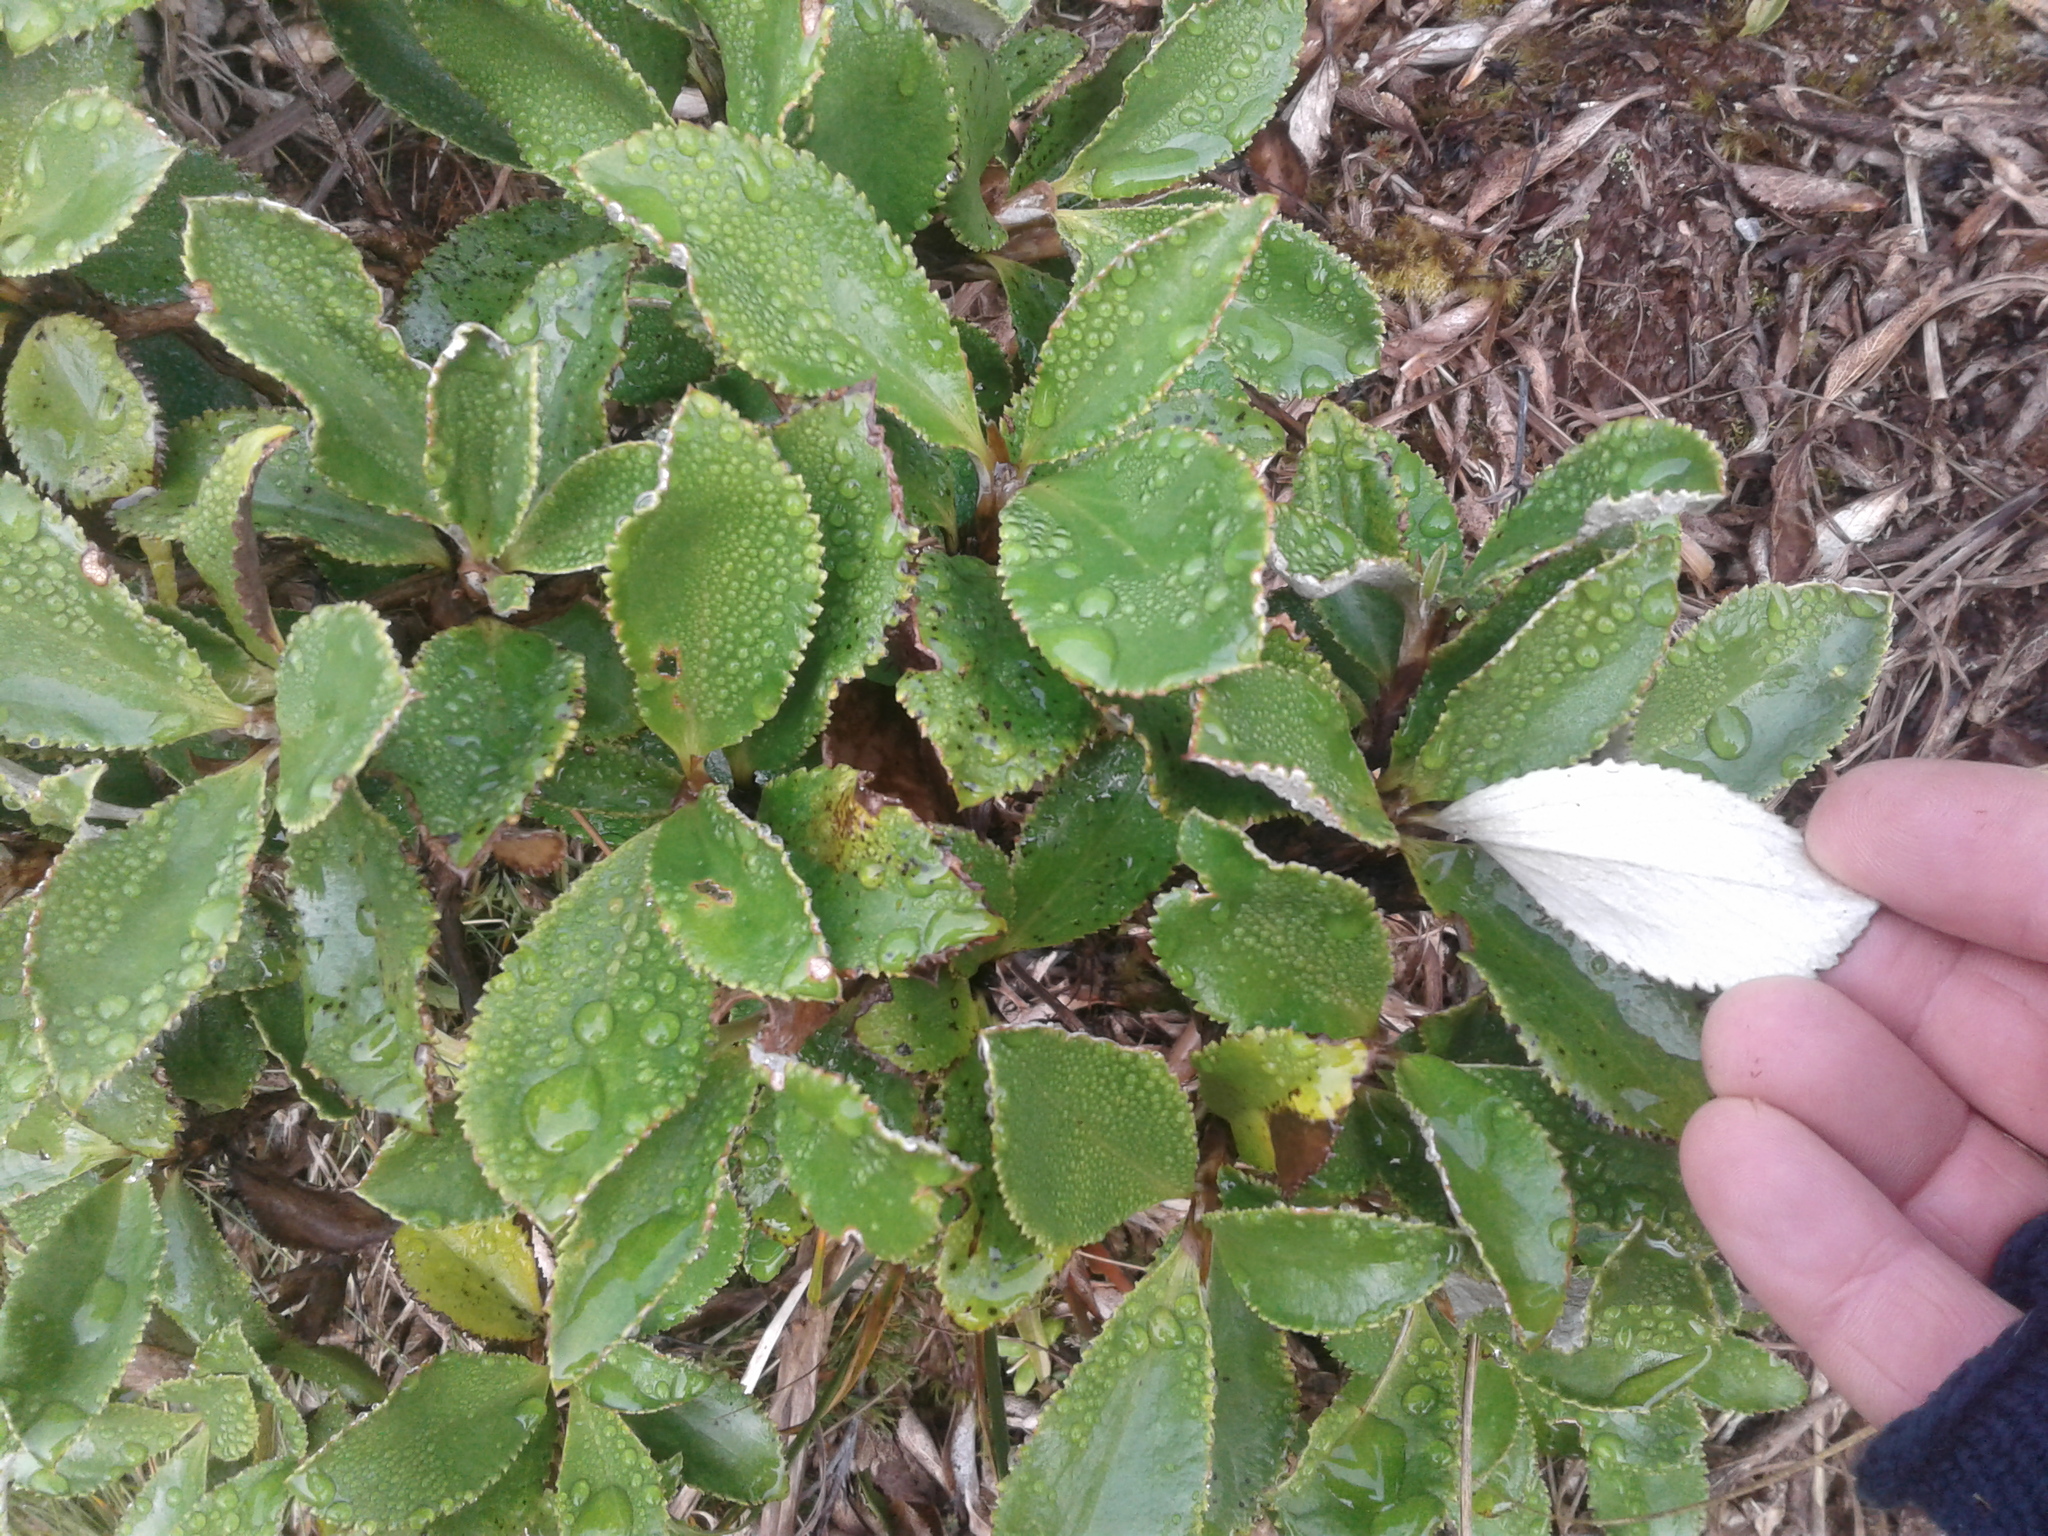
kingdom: Plantae
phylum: Tracheophyta
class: Magnoliopsida
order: Asterales
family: Asteraceae
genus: Macrolearia
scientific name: Macrolearia colensoi
